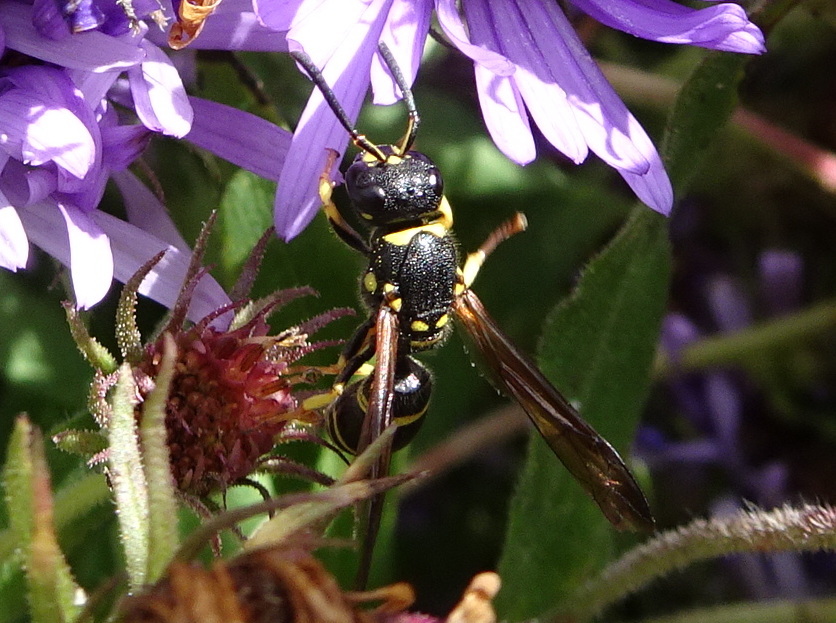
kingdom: Animalia
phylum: Arthropoda
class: Insecta
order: Hymenoptera
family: Vespidae
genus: Ancistrocerus
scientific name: Ancistrocerus adiabatus
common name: Bramble mason wasp
